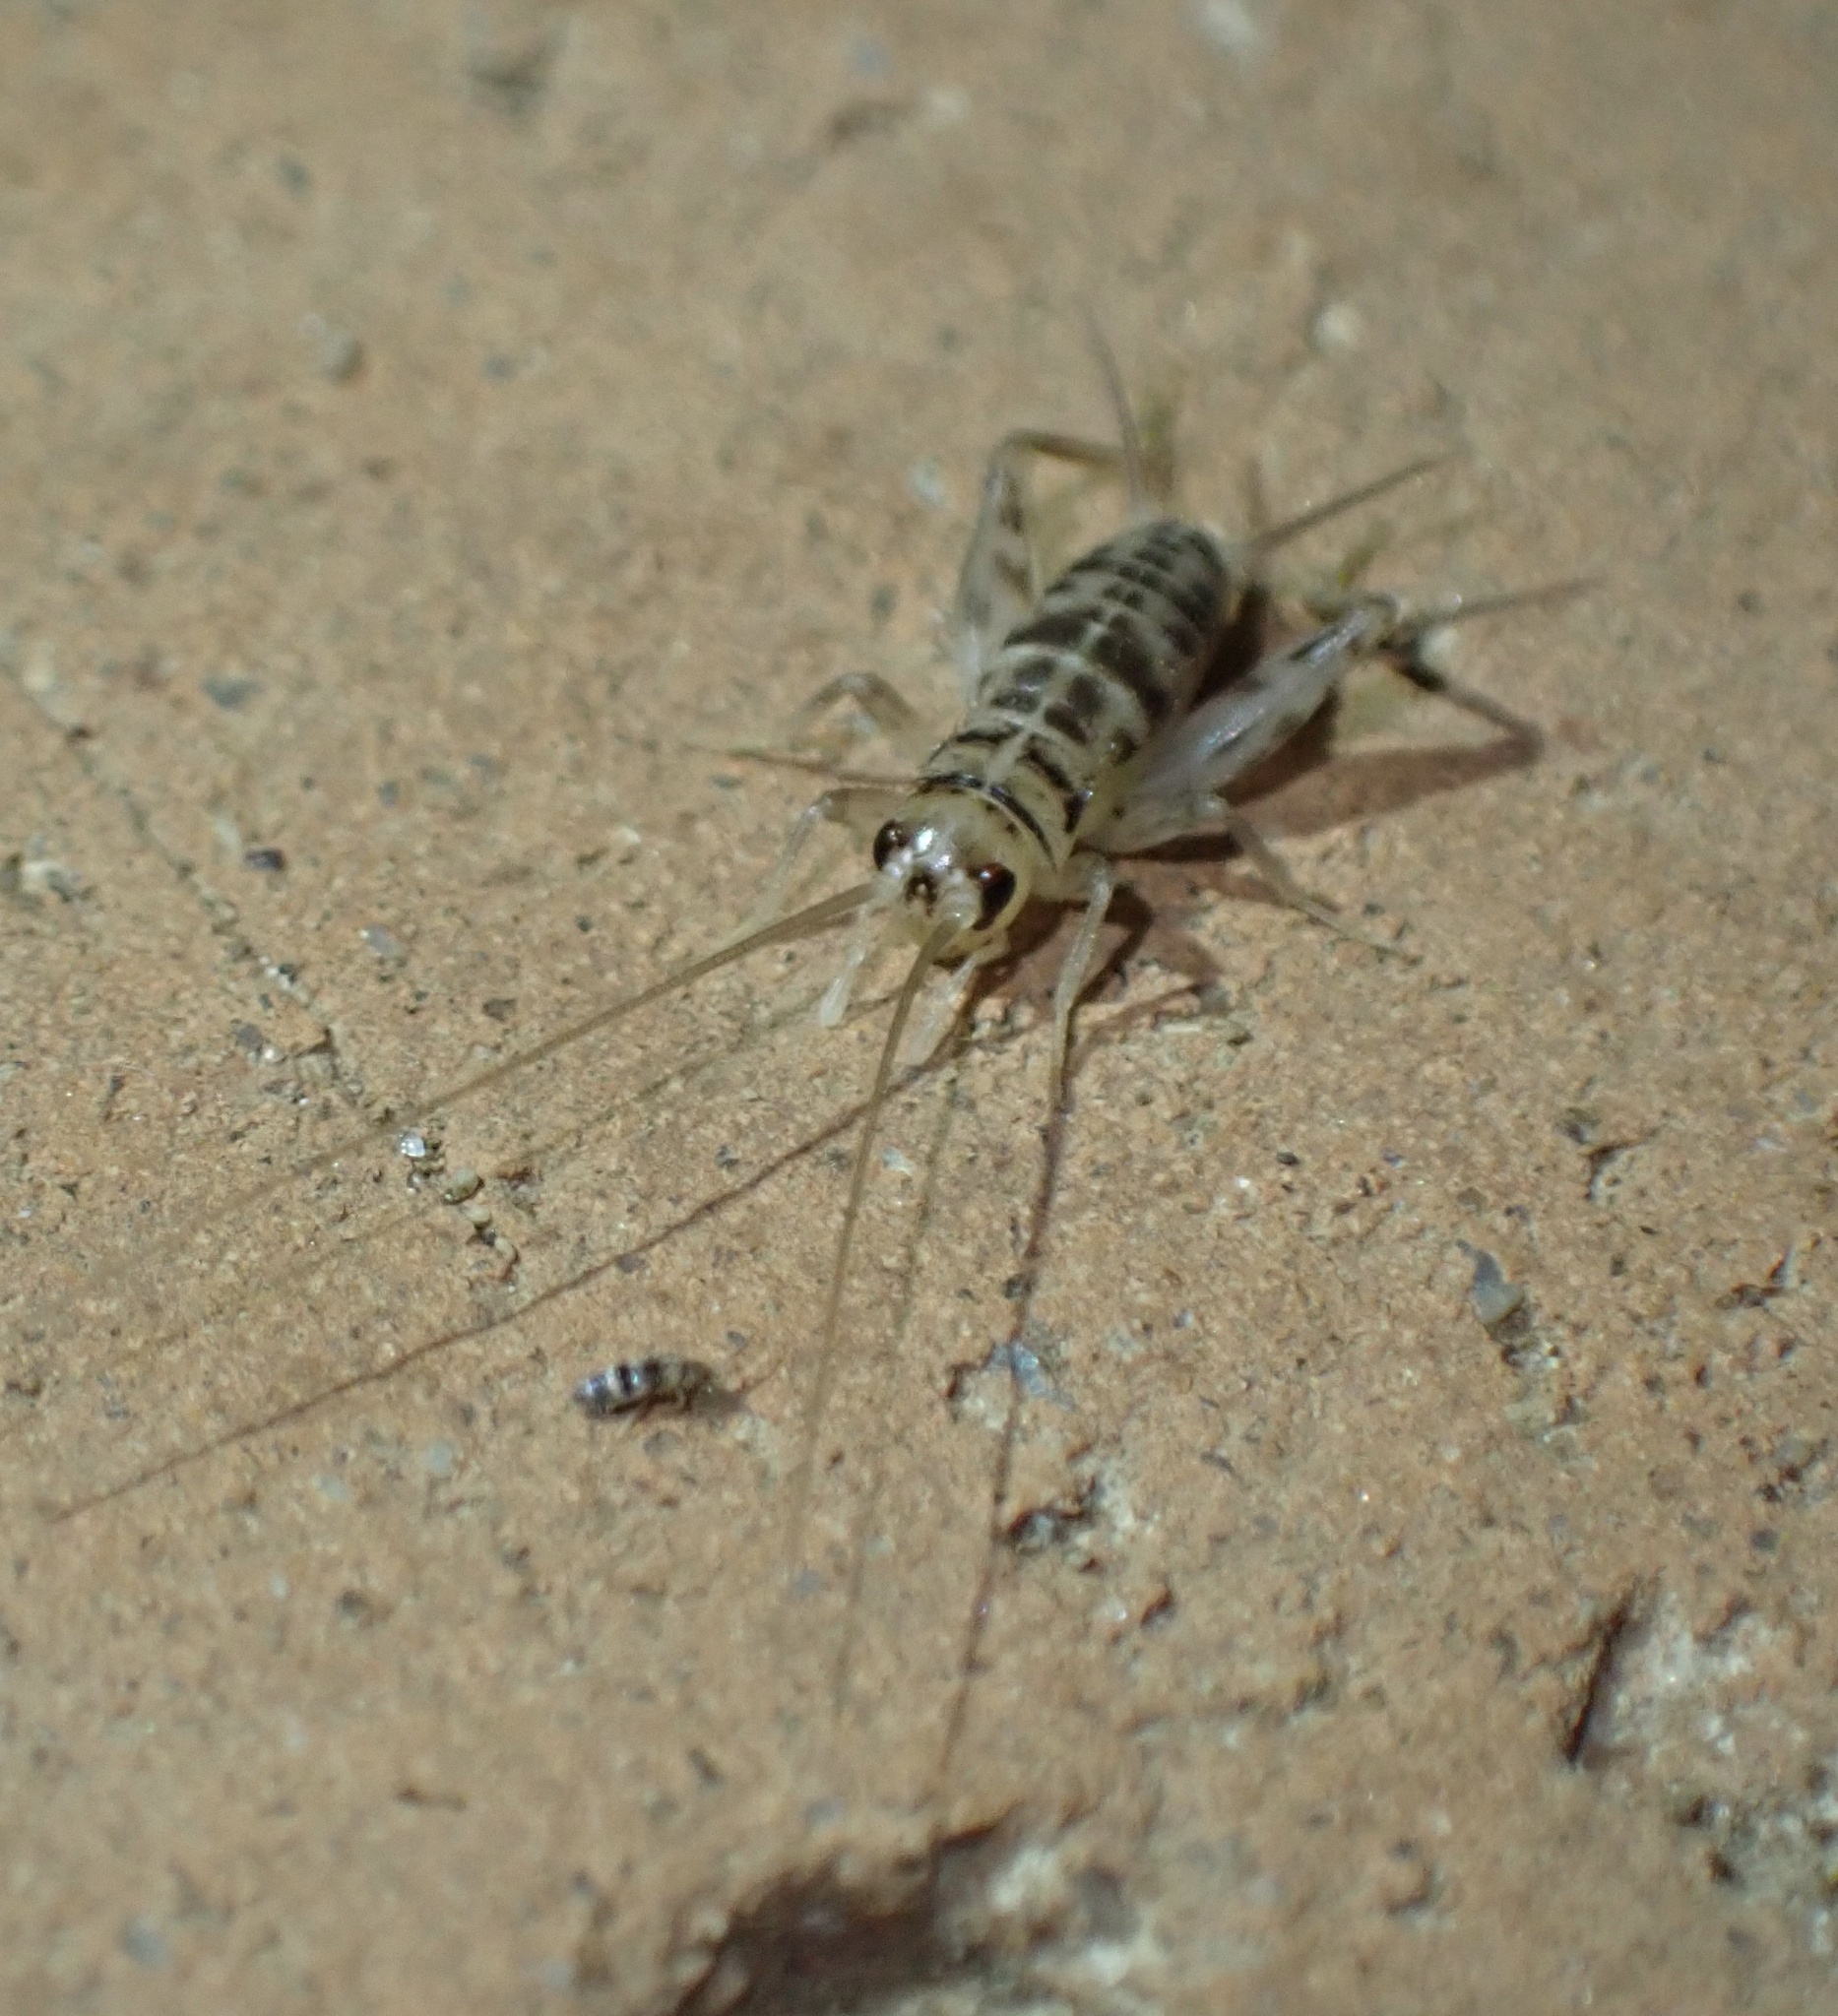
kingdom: Animalia
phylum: Arthropoda
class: Insecta
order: Orthoptera
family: Gryllidae
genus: Gryllomorpha
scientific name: Gryllomorpha dalmatina
